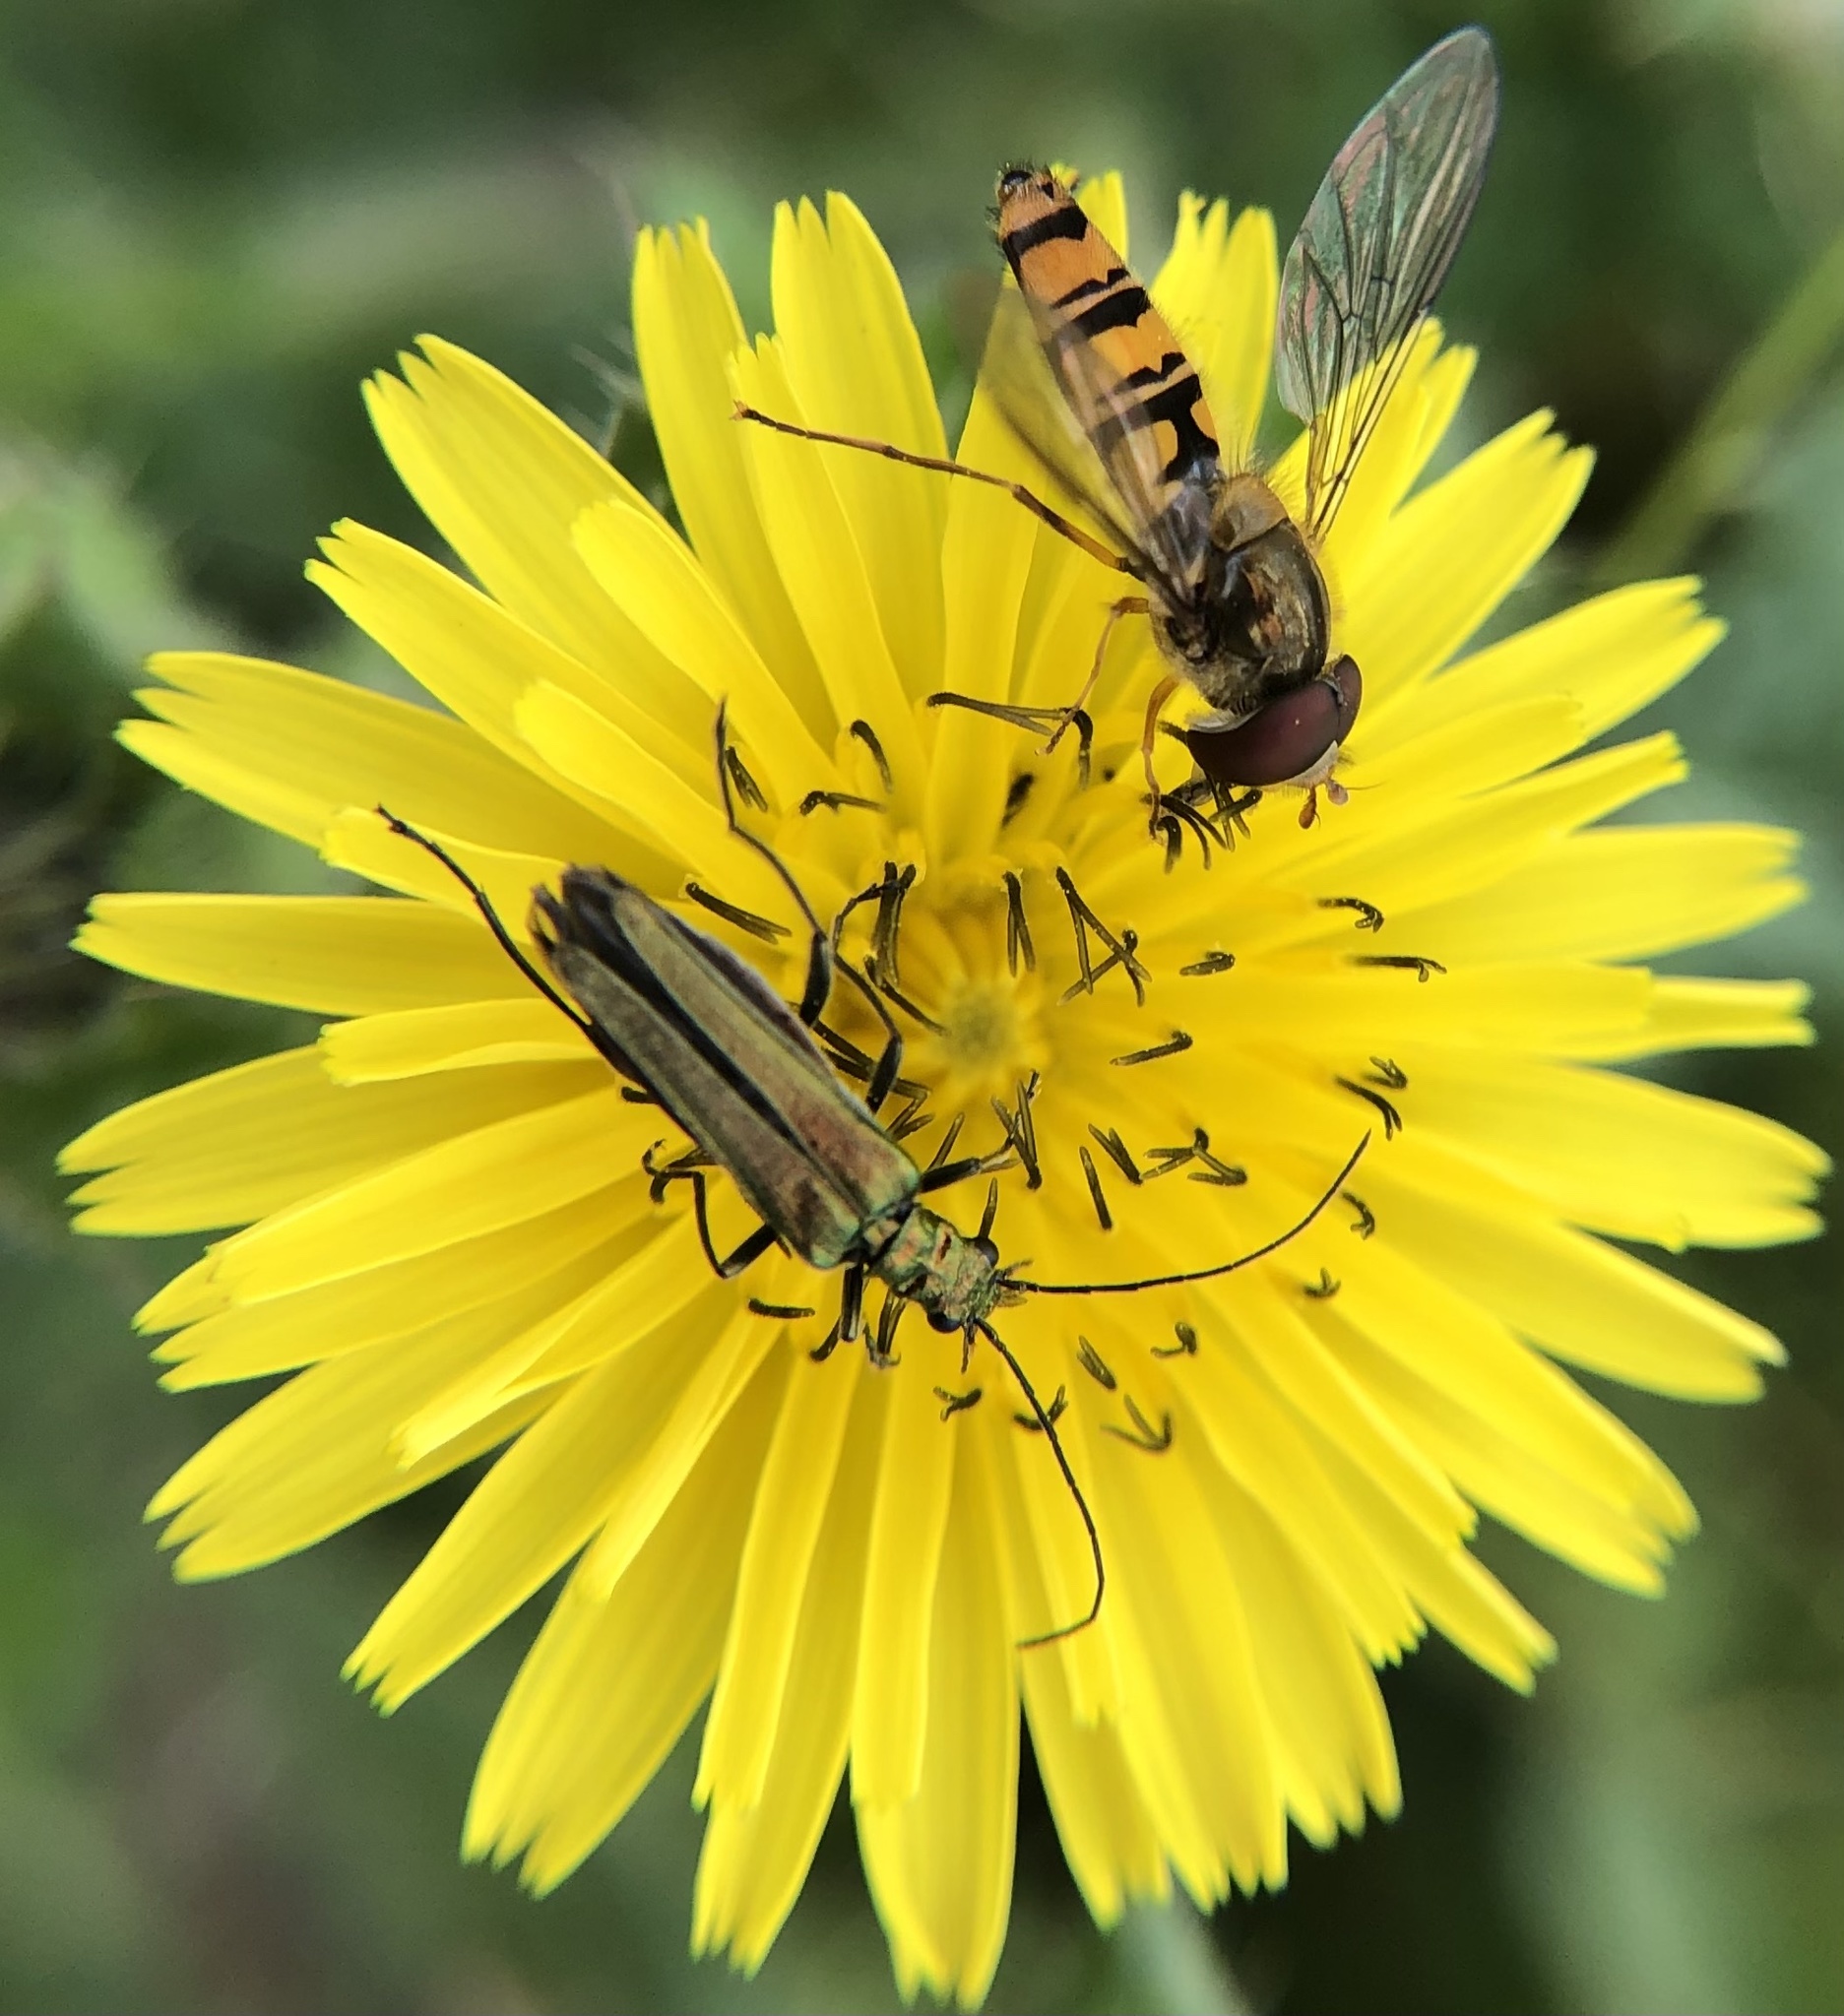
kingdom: Animalia
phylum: Arthropoda
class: Insecta
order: Coleoptera
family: Oedemeridae
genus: Oedemera
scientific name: Oedemera nobilis
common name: Swollen-thighed beetle
